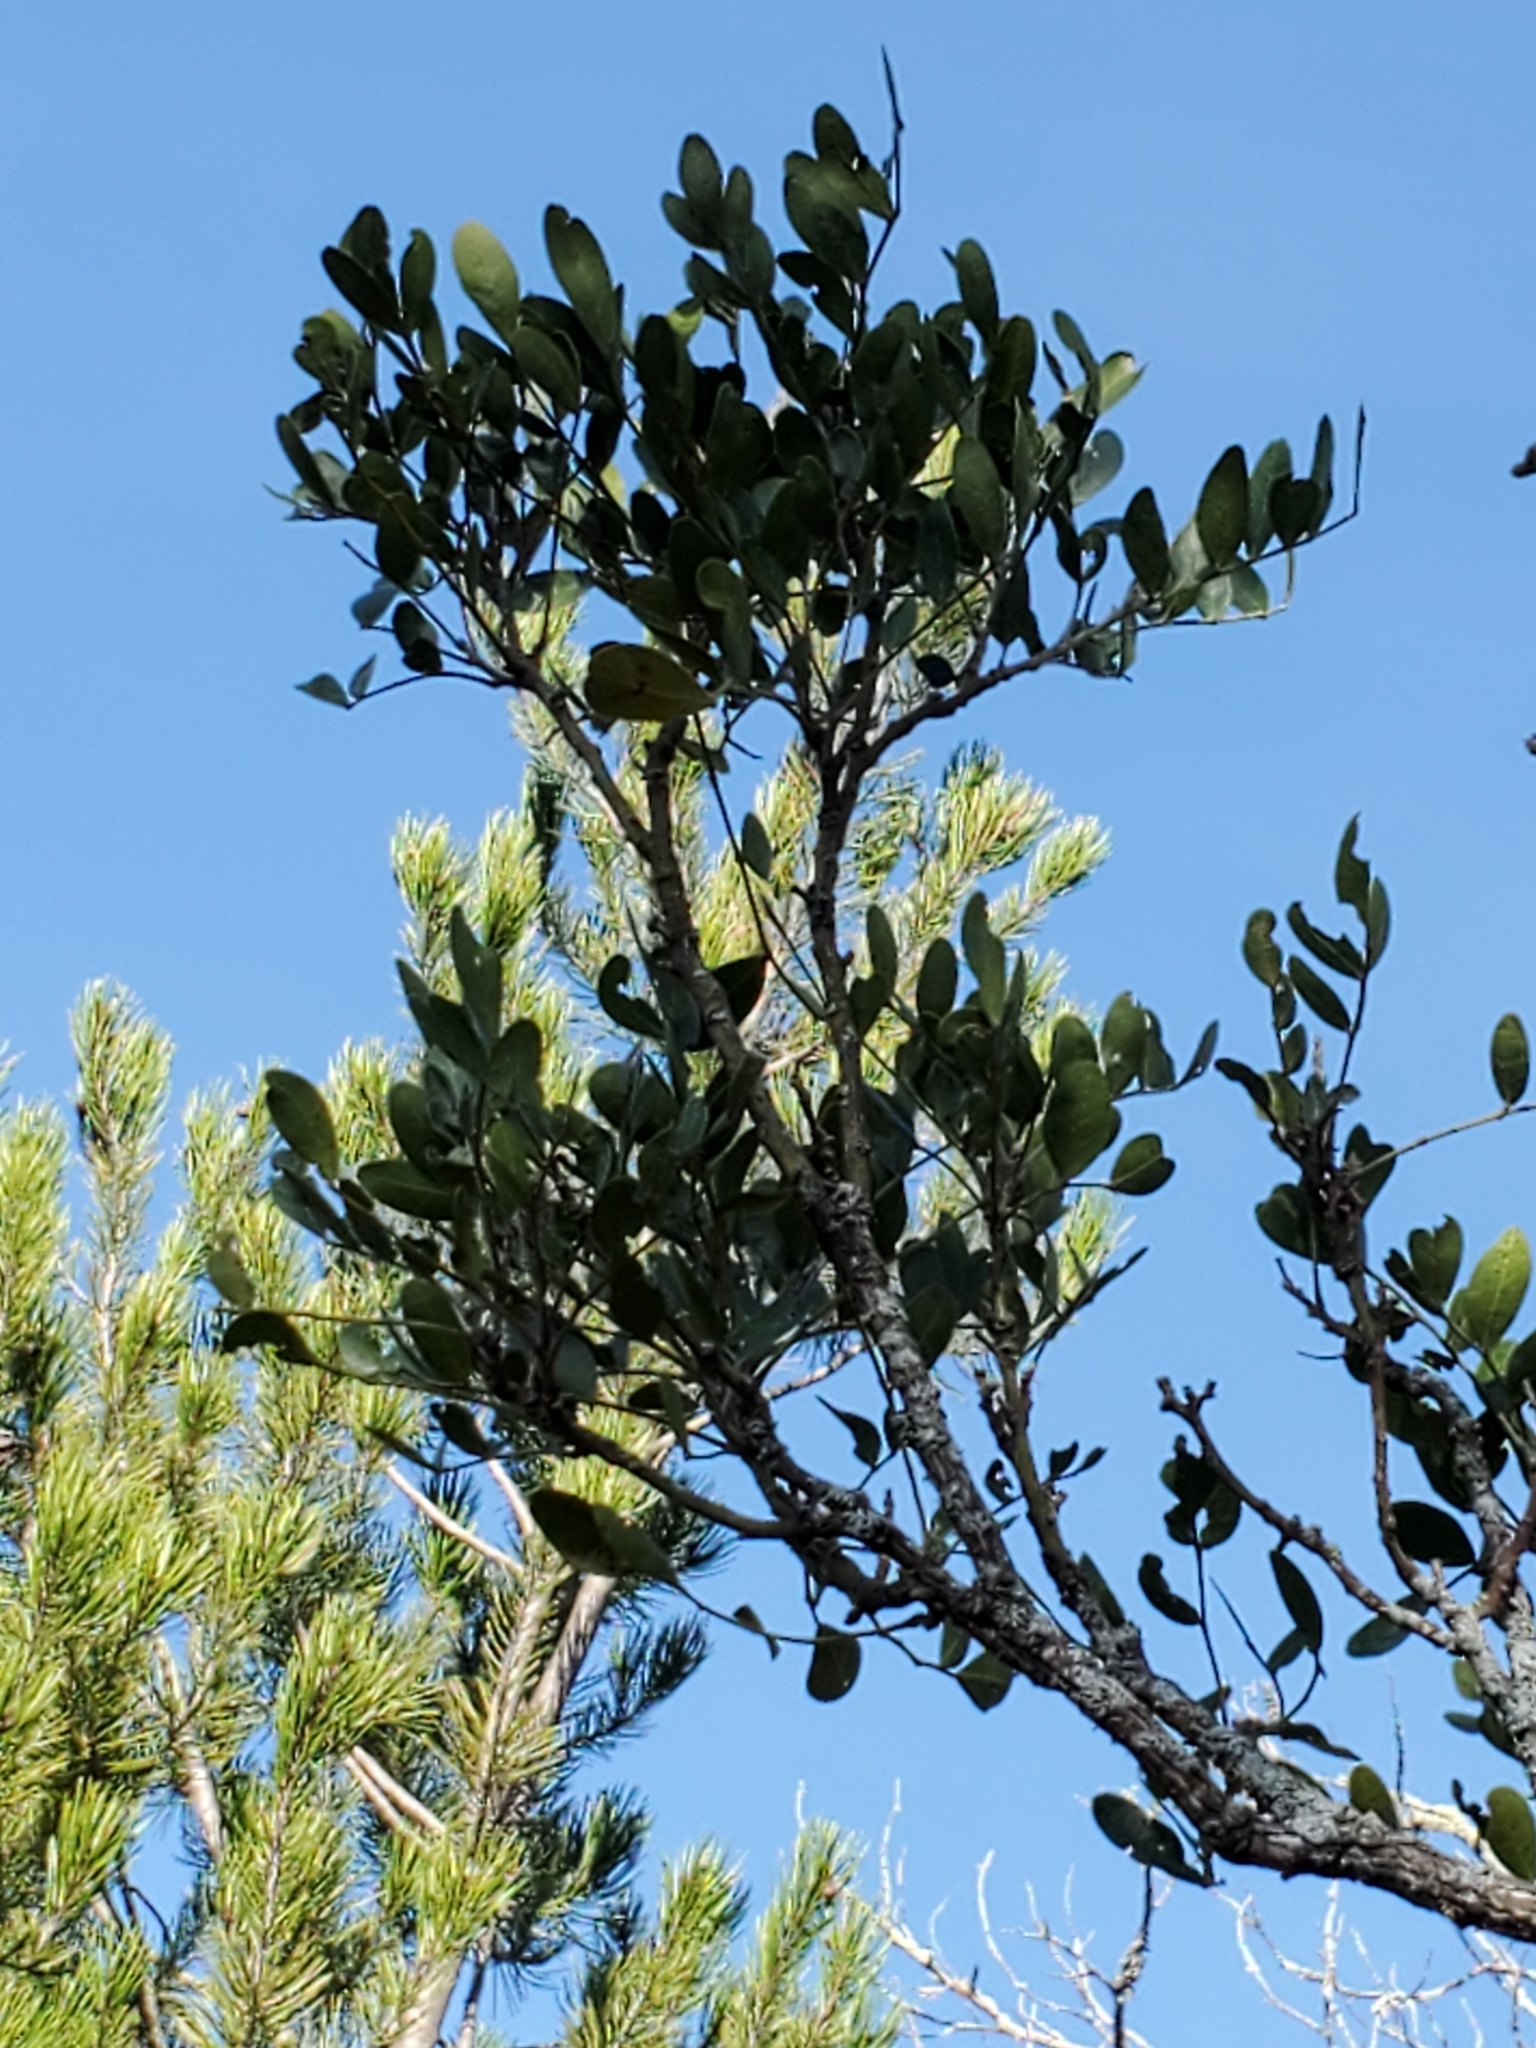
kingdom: Plantae
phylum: Tracheophyta
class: Magnoliopsida
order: Fabales
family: Fabaceae
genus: Dermatophyllum
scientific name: Dermatophyllum secundiflorum
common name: Texas-mountain-laurel
